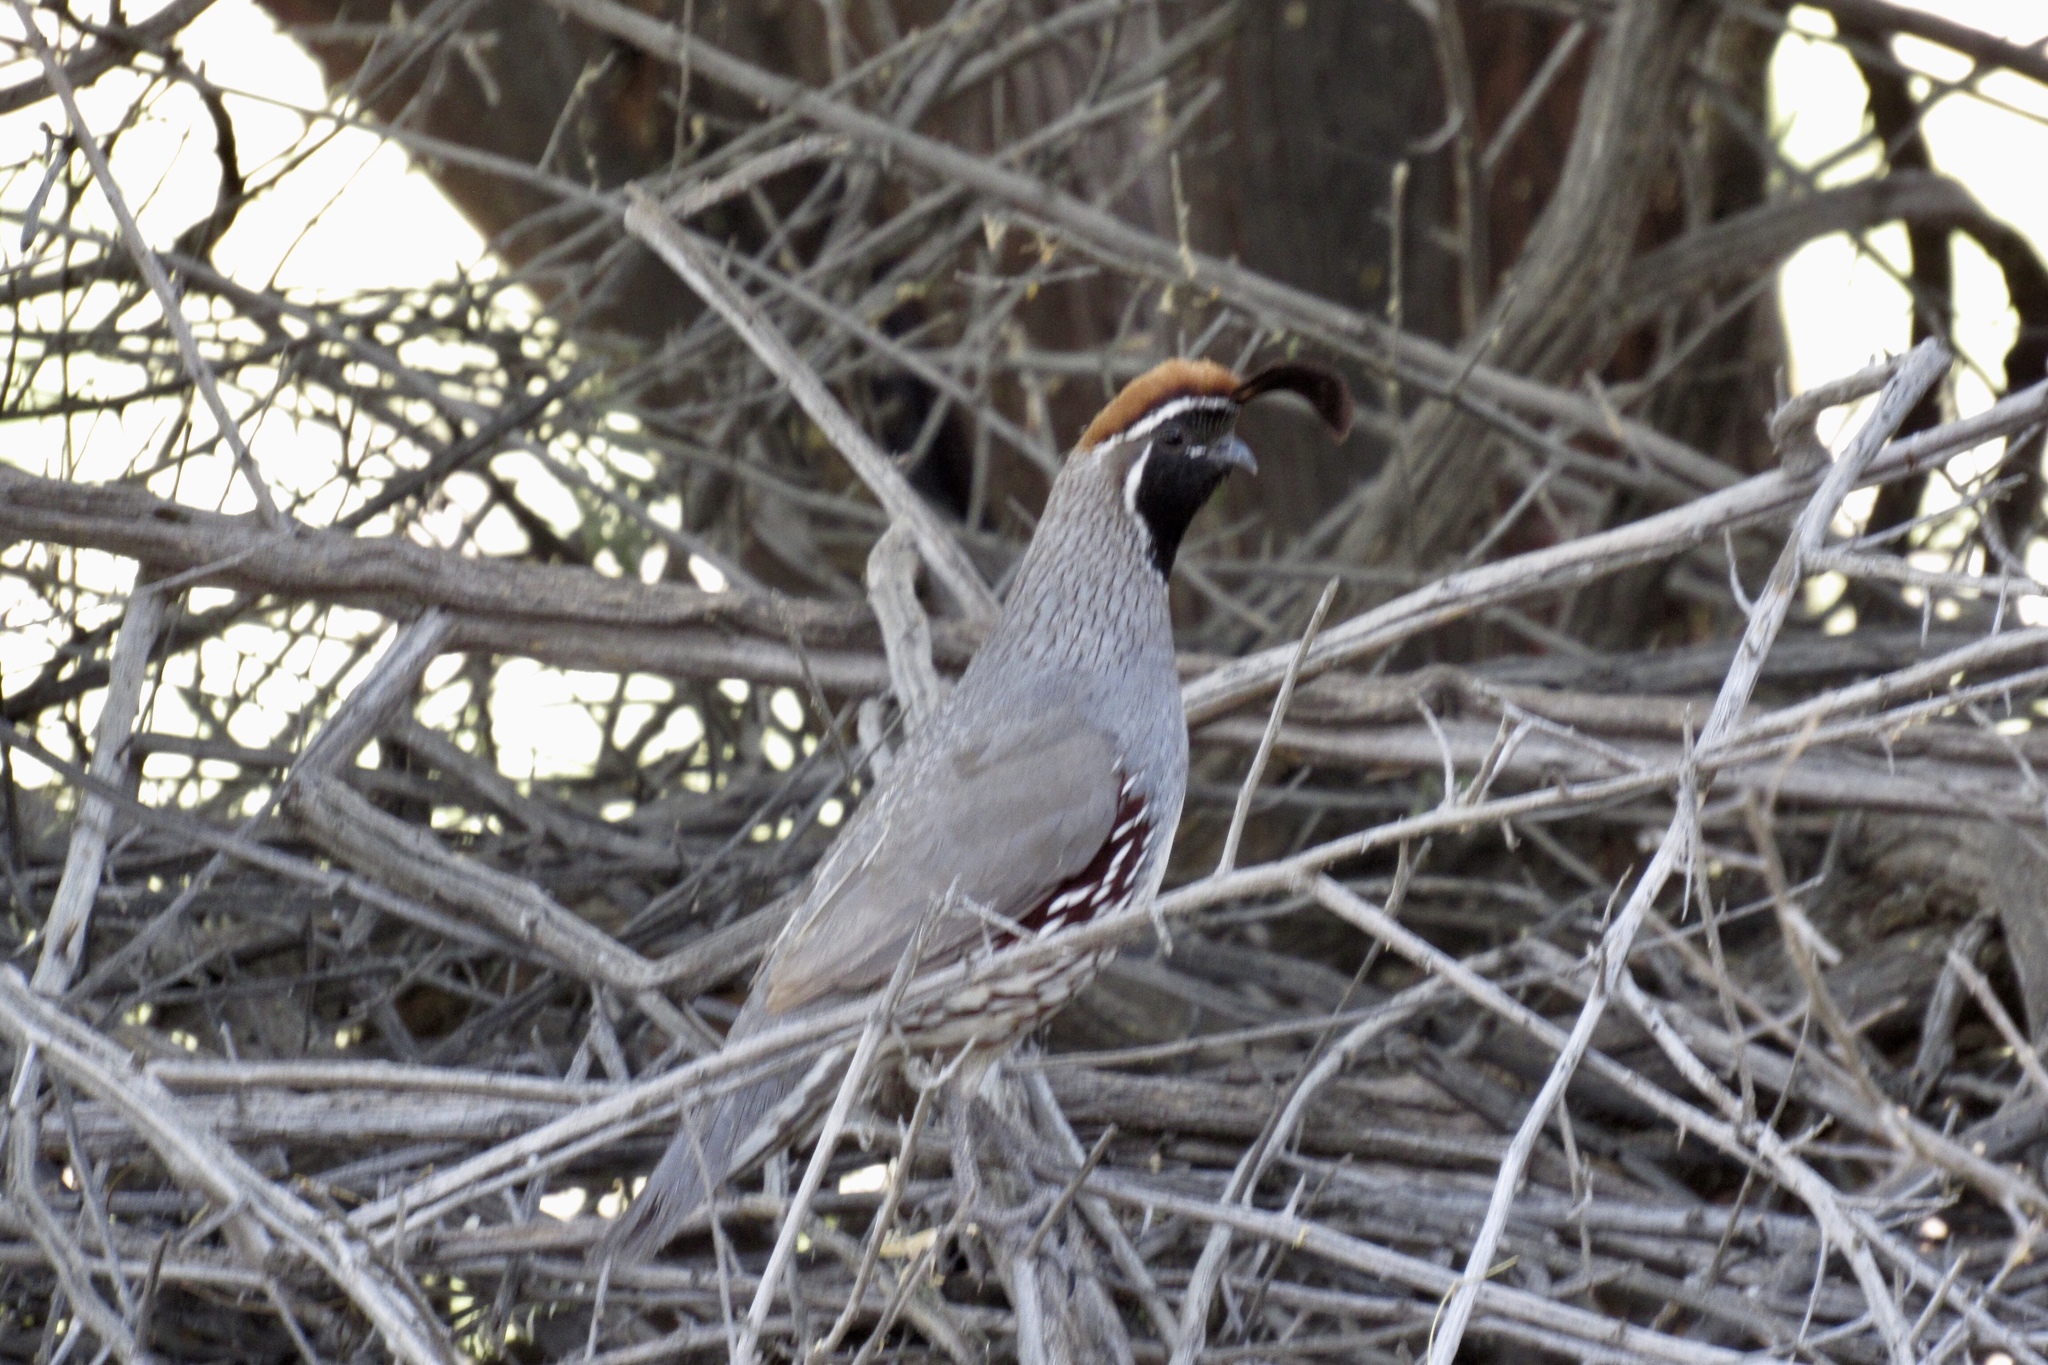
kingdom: Animalia
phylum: Chordata
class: Aves
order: Galliformes
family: Odontophoridae
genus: Callipepla
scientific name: Callipepla gambelii
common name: Gambel's quail
